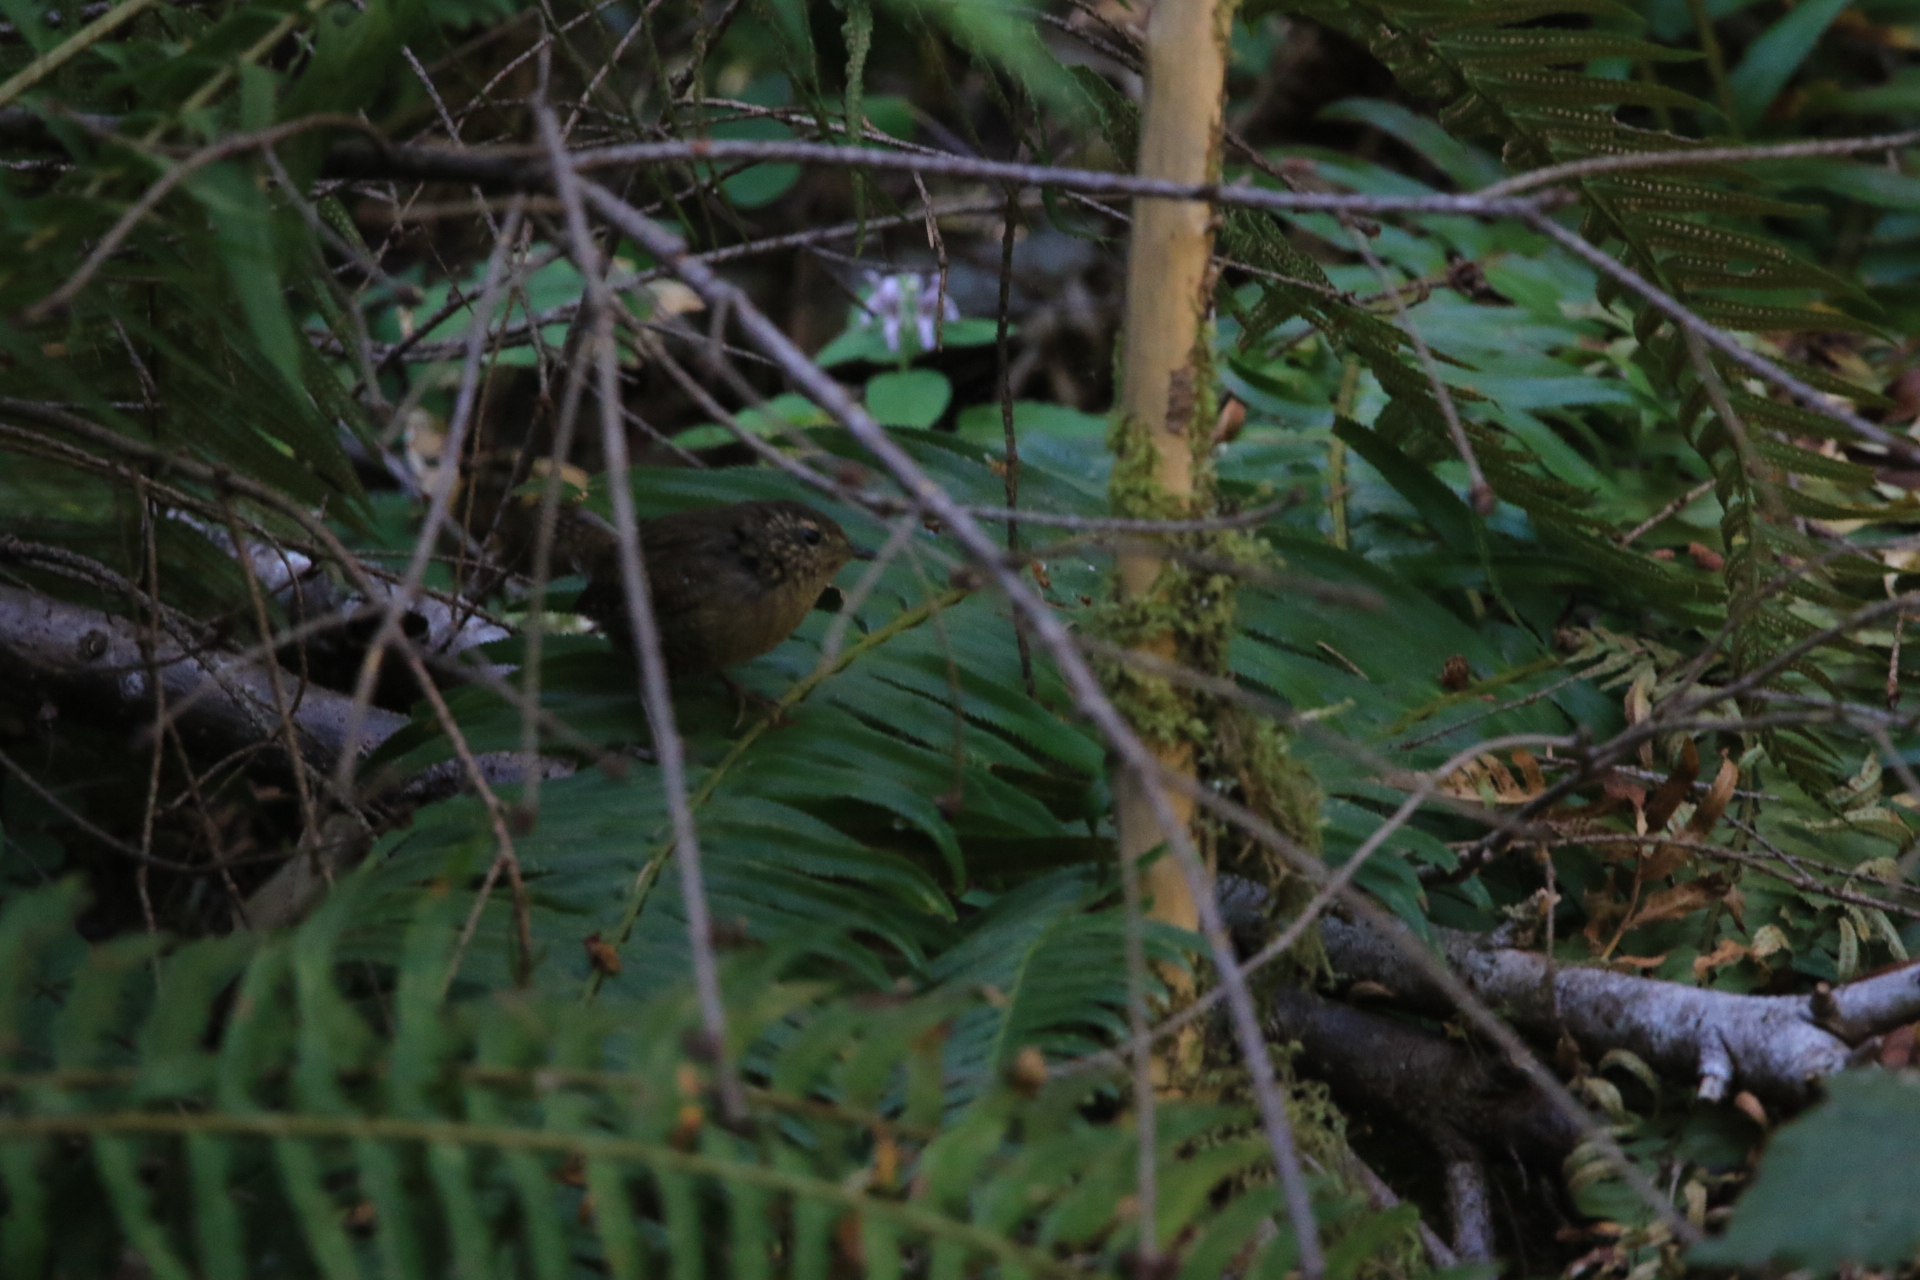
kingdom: Animalia
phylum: Chordata
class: Aves
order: Passeriformes
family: Troglodytidae
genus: Troglodytes
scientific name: Troglodytes pacificus
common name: Pacific wren
